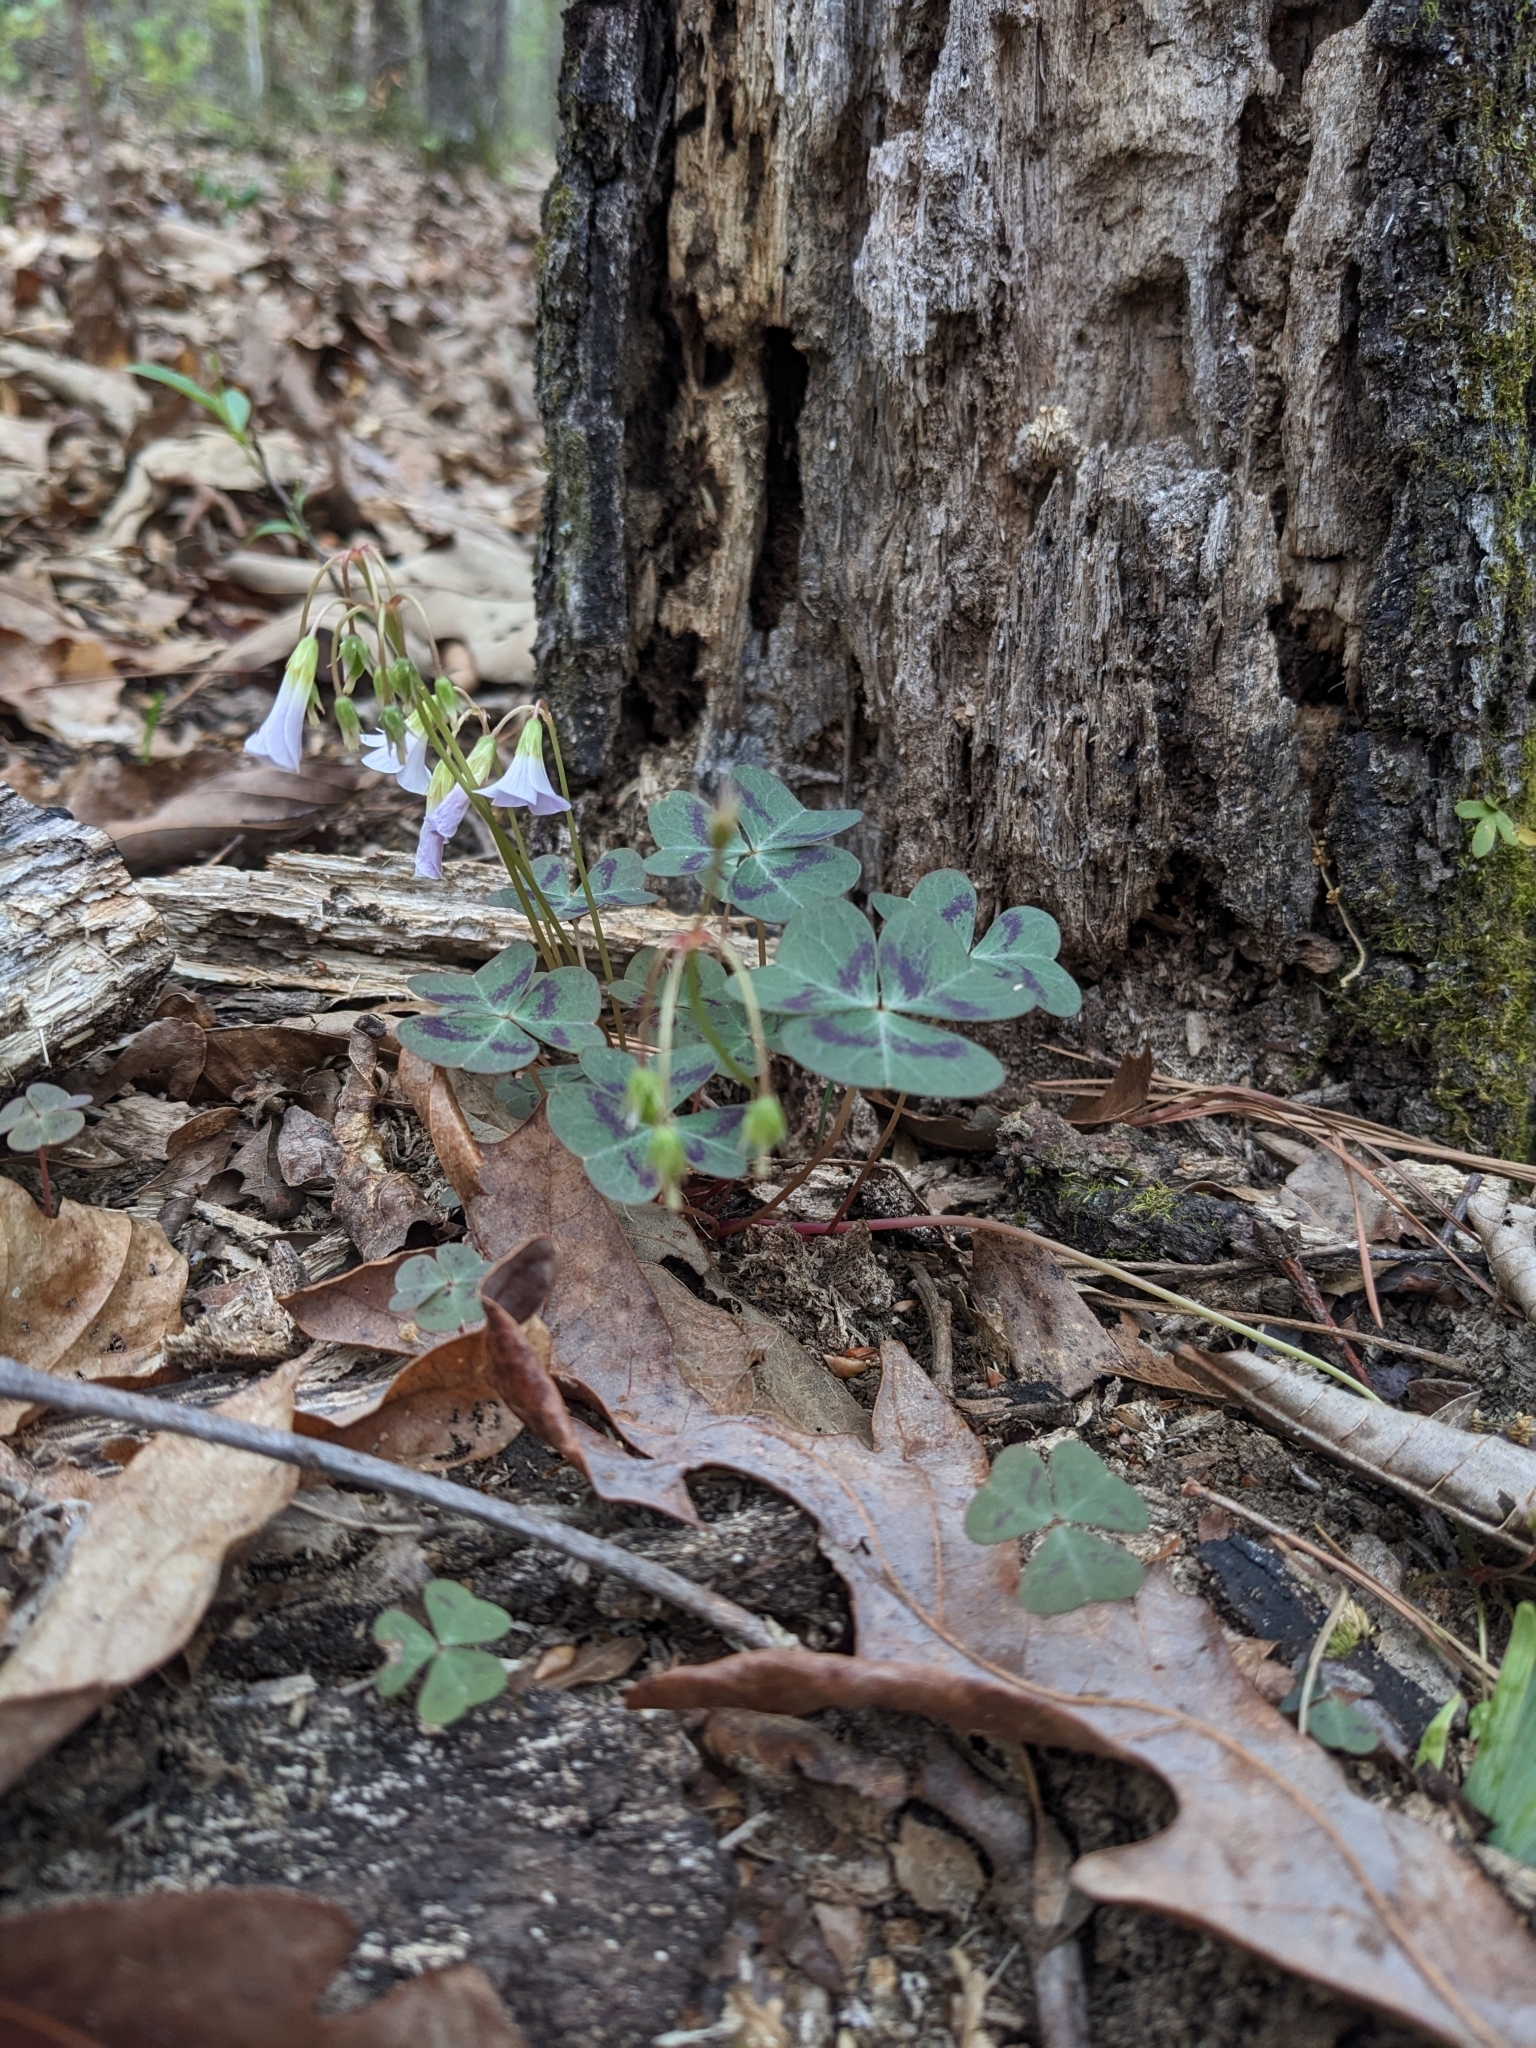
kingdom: Plantae
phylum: Tracheophyta
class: Magnoliopsida
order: Oxalidales
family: Oxalidaceae
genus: Oxalis
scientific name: Oxalis violacea
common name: Violet wood-sorrel
